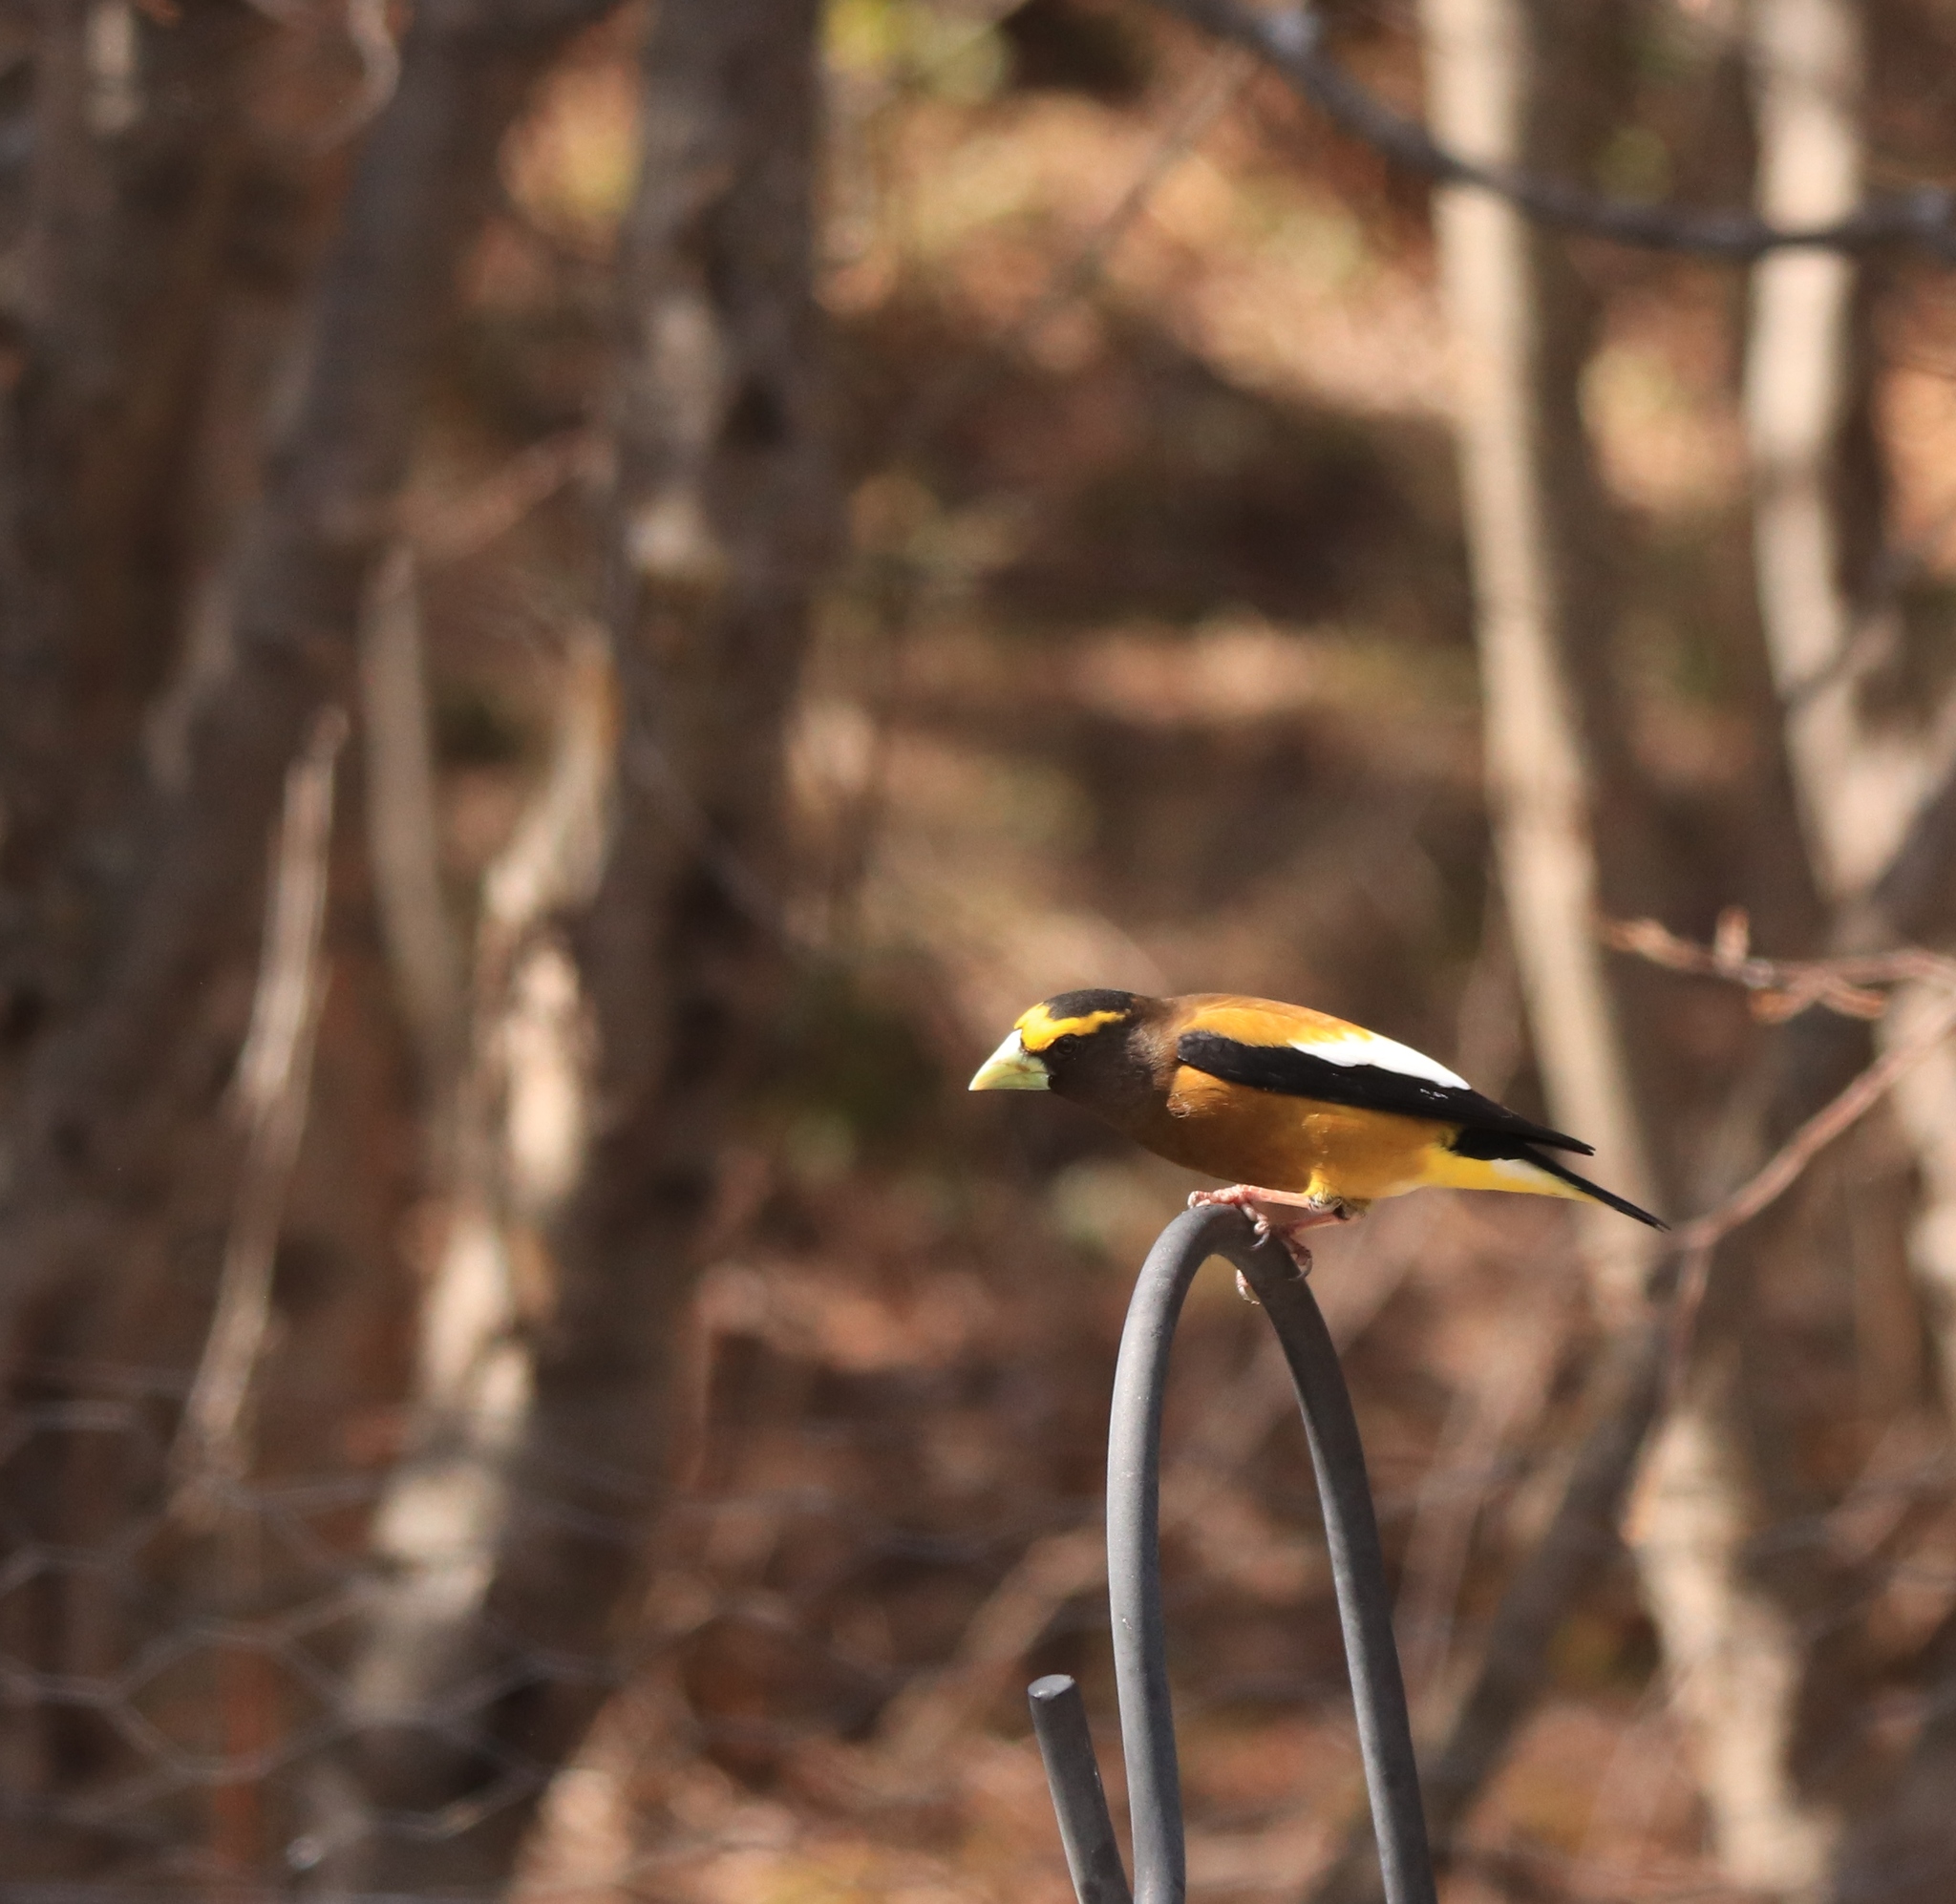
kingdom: Animalia
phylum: Chordata
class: Aves
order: Passeriformes
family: Fringillidae
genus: Hesperiphona
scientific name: Hesperiphona vespertina
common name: Evening grosbeak
